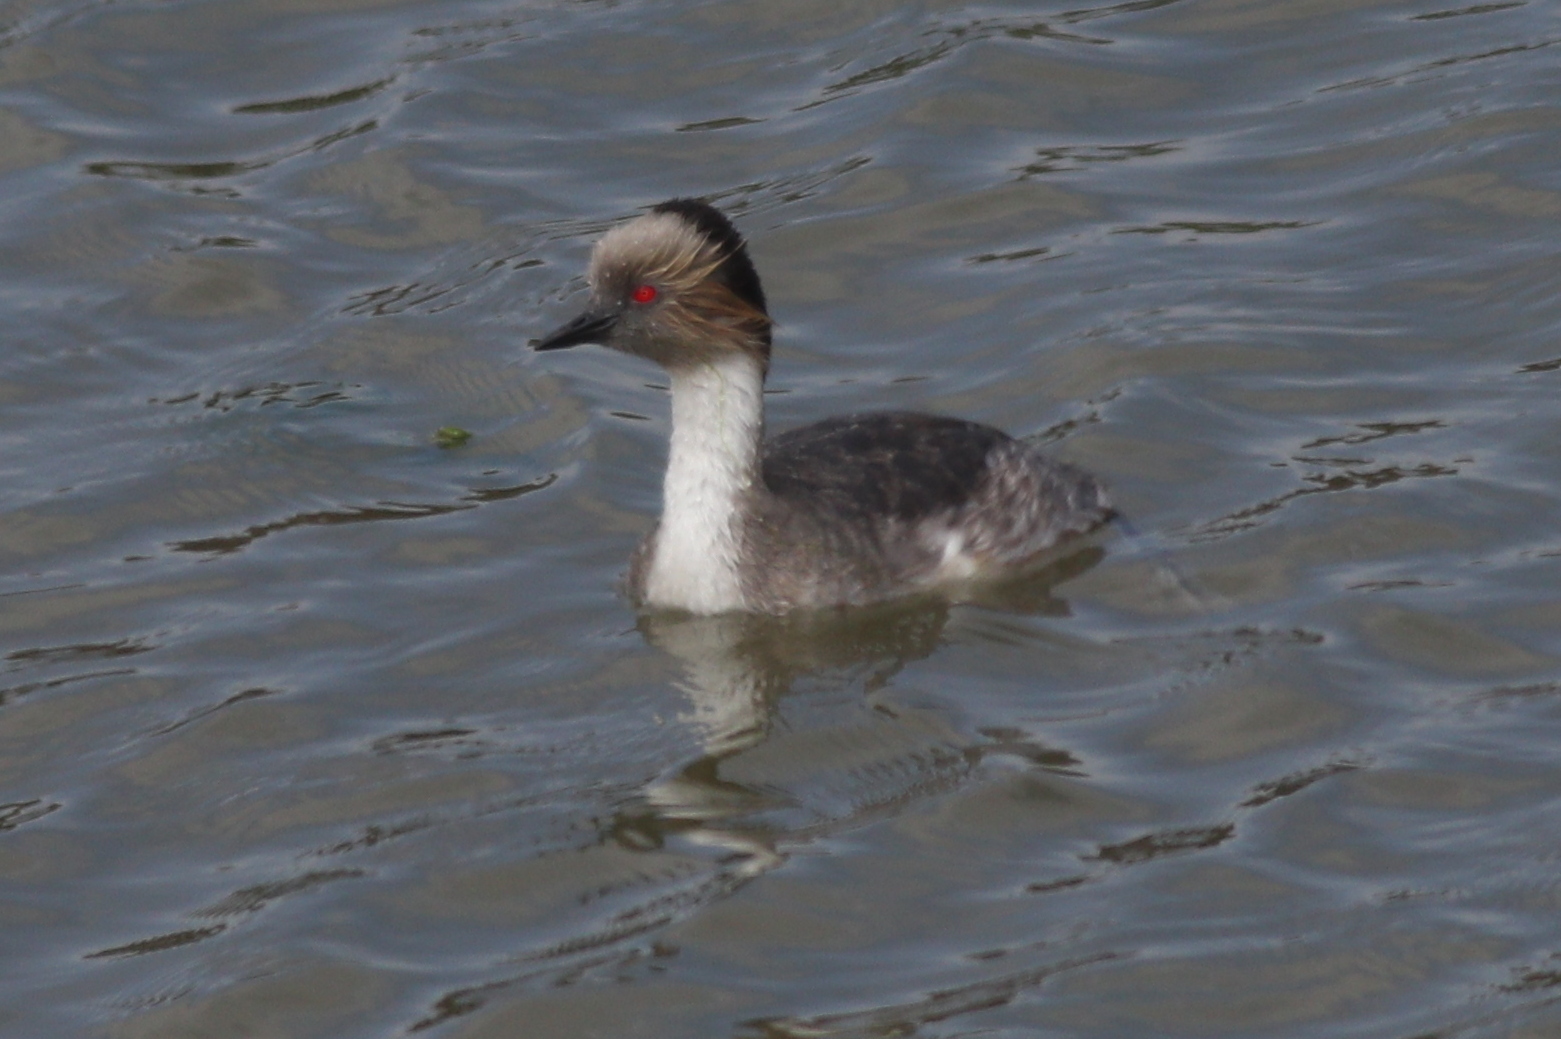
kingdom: Animalia
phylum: Chordata
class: Aves
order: Podicipediformes
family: Podicipedidae
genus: Podiceps
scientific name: Podiceps occipitalis
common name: Silvery grebe
